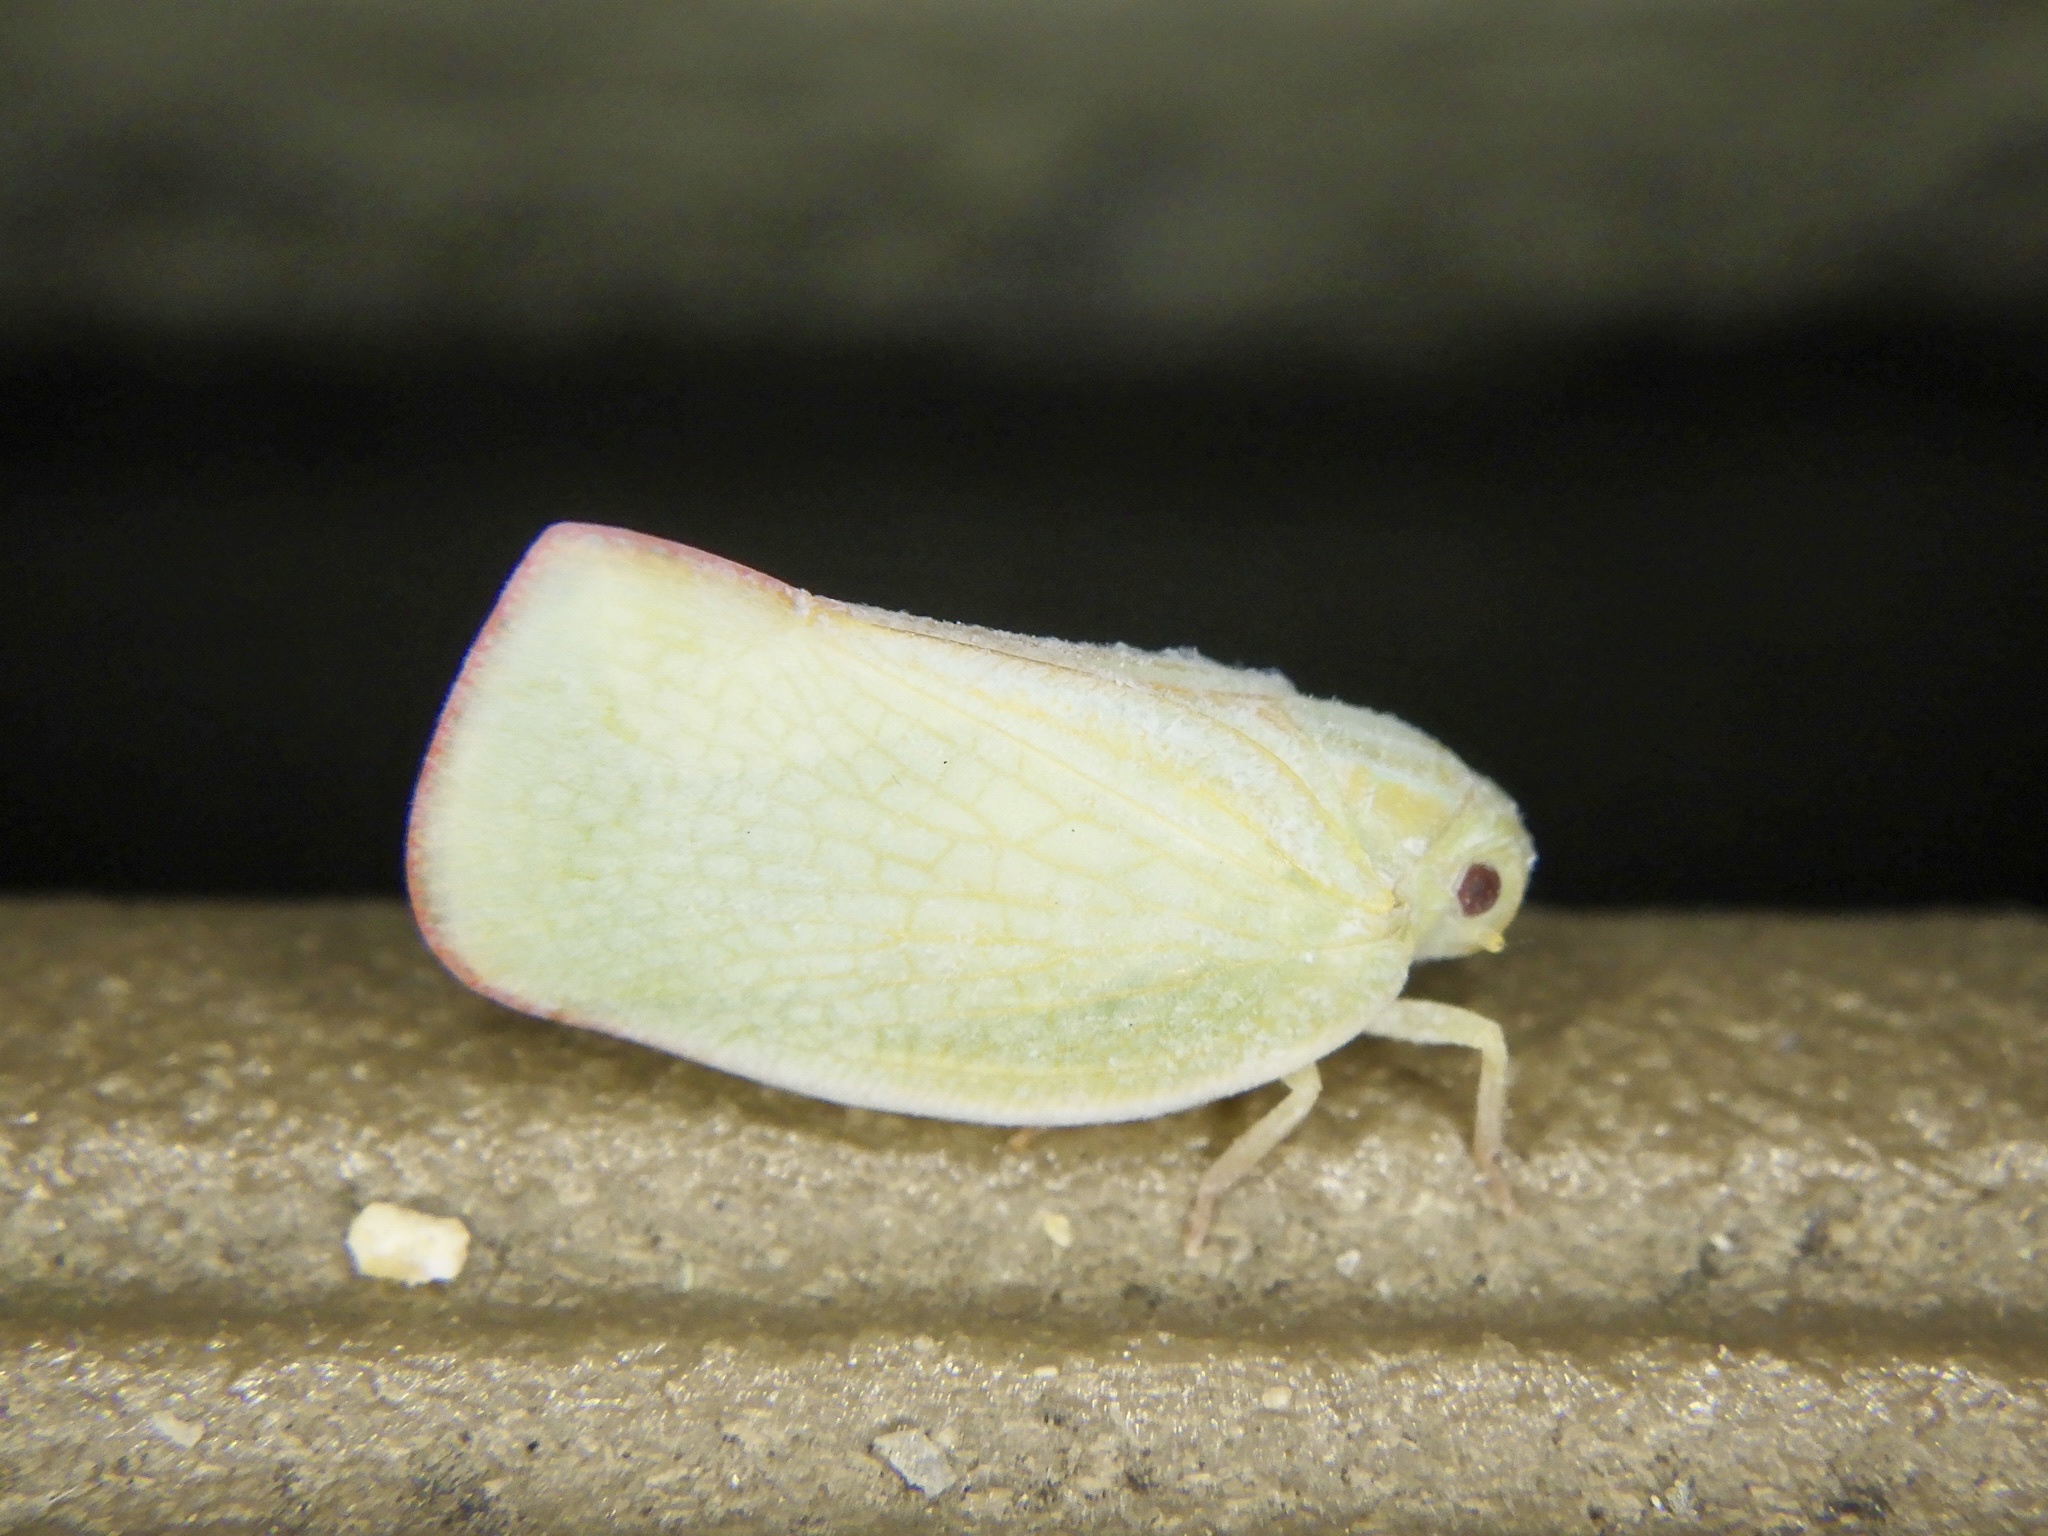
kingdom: Animalia
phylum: Arthropoda
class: Insecta
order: Hemiptera
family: Flatidae
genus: Geisha
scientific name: Geisha distinctissima
